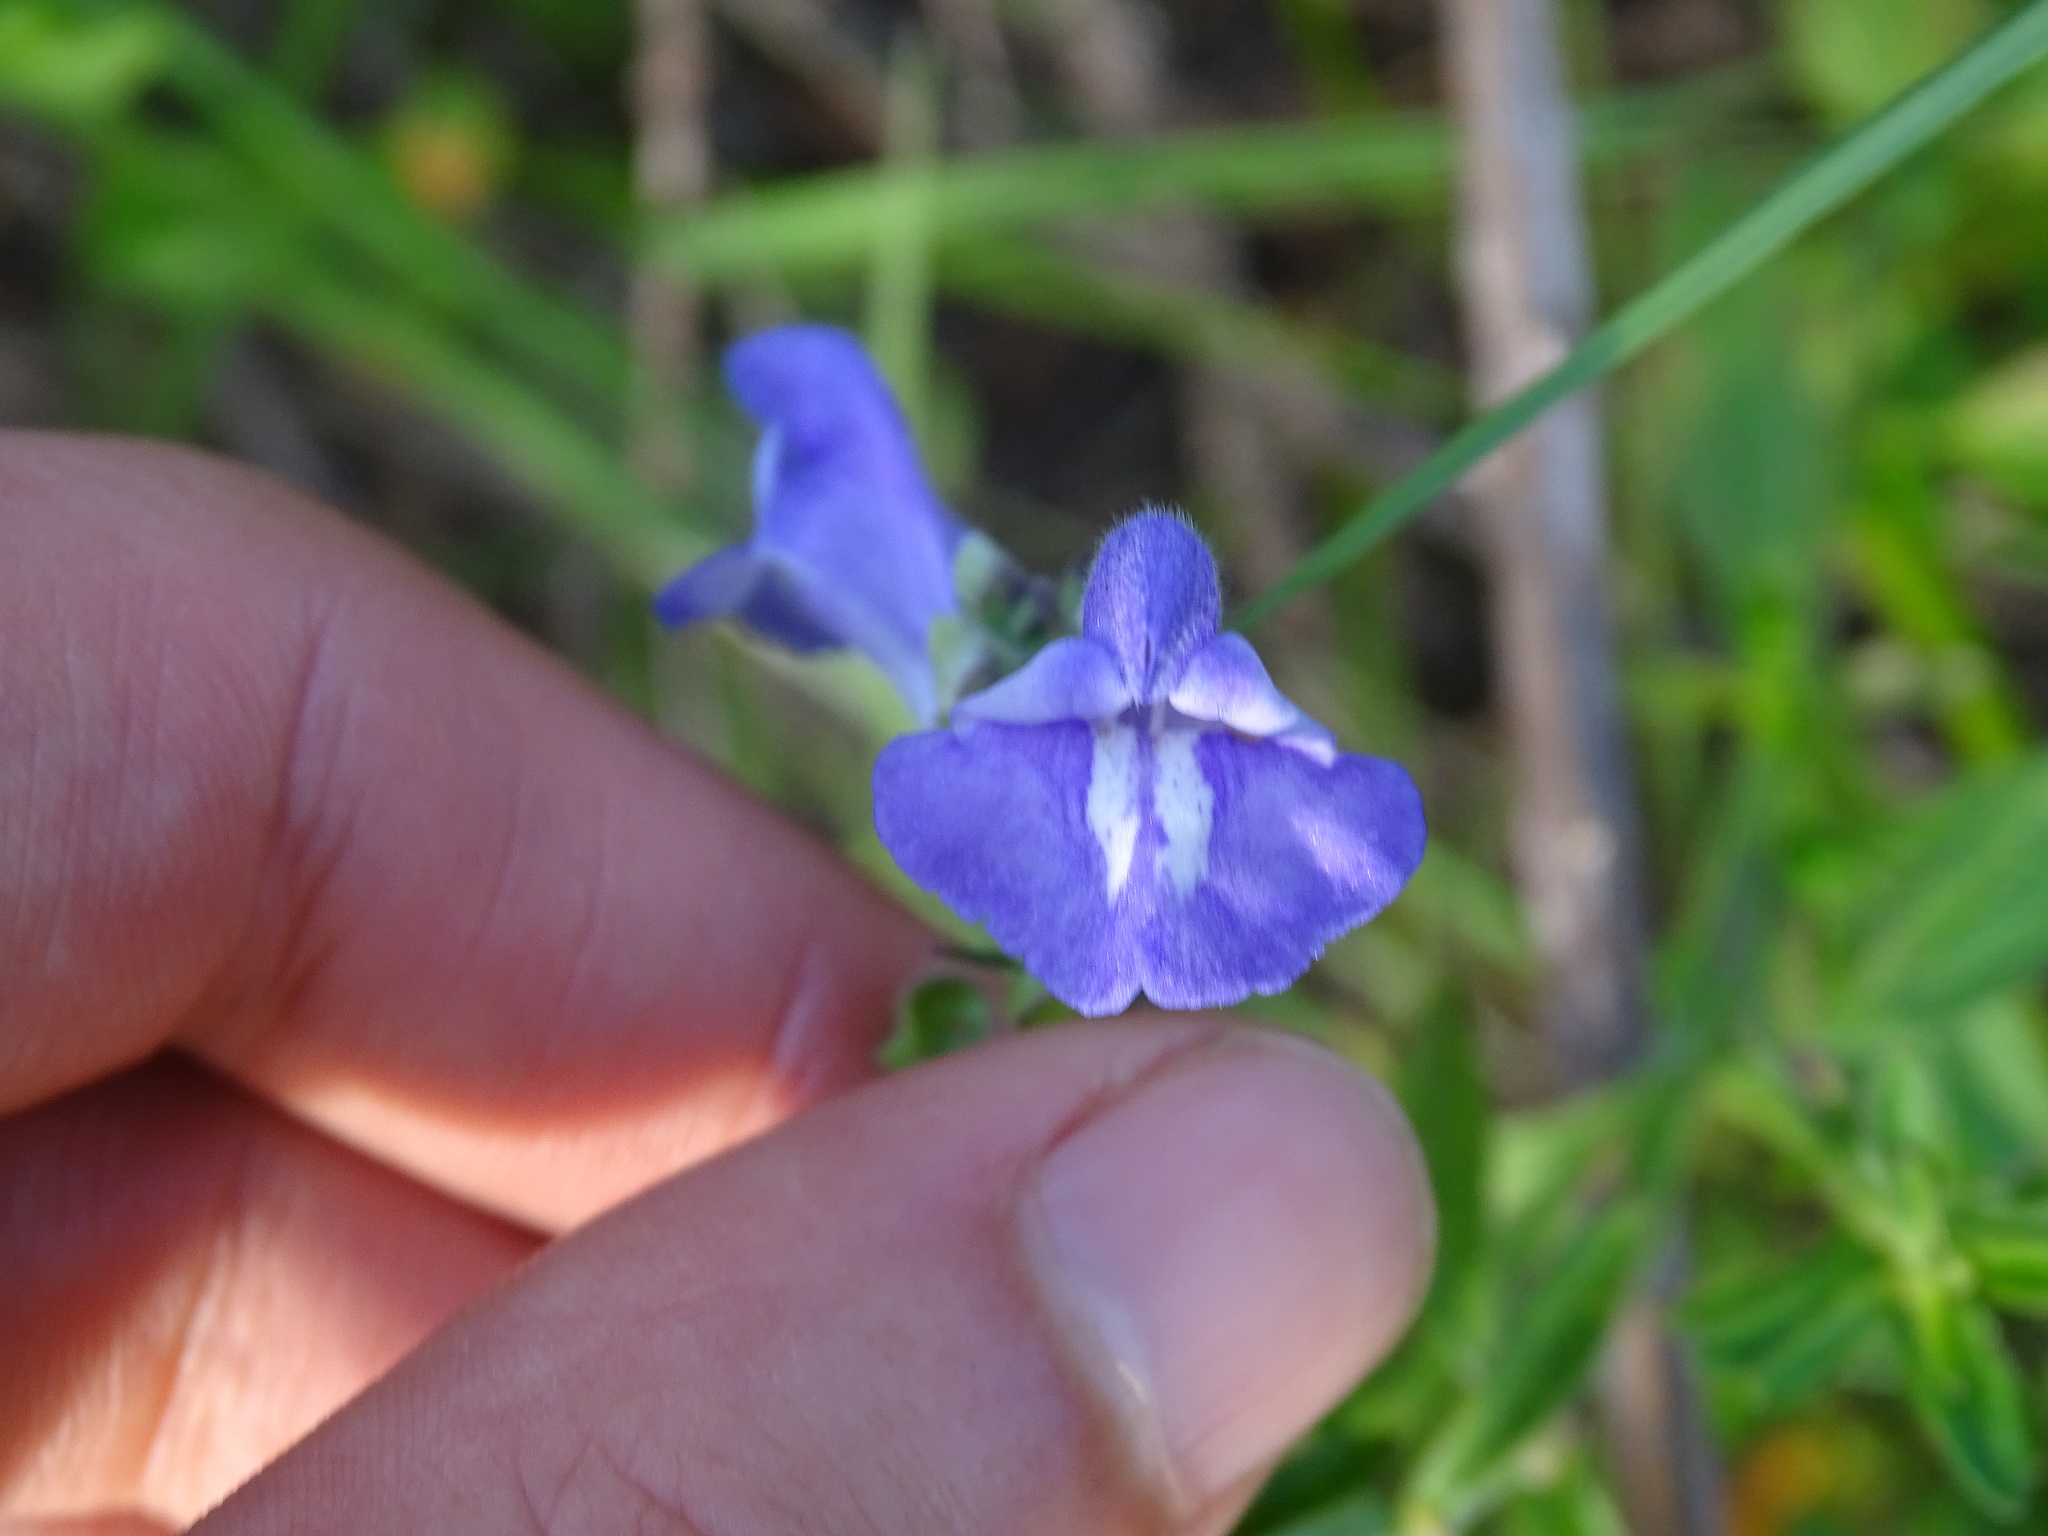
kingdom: Plantae
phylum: Tracheophyta
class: Magnoliopsida
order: Lamiales
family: Lamiaceae
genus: Scutellaria
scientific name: Scutellaria integrifolia
